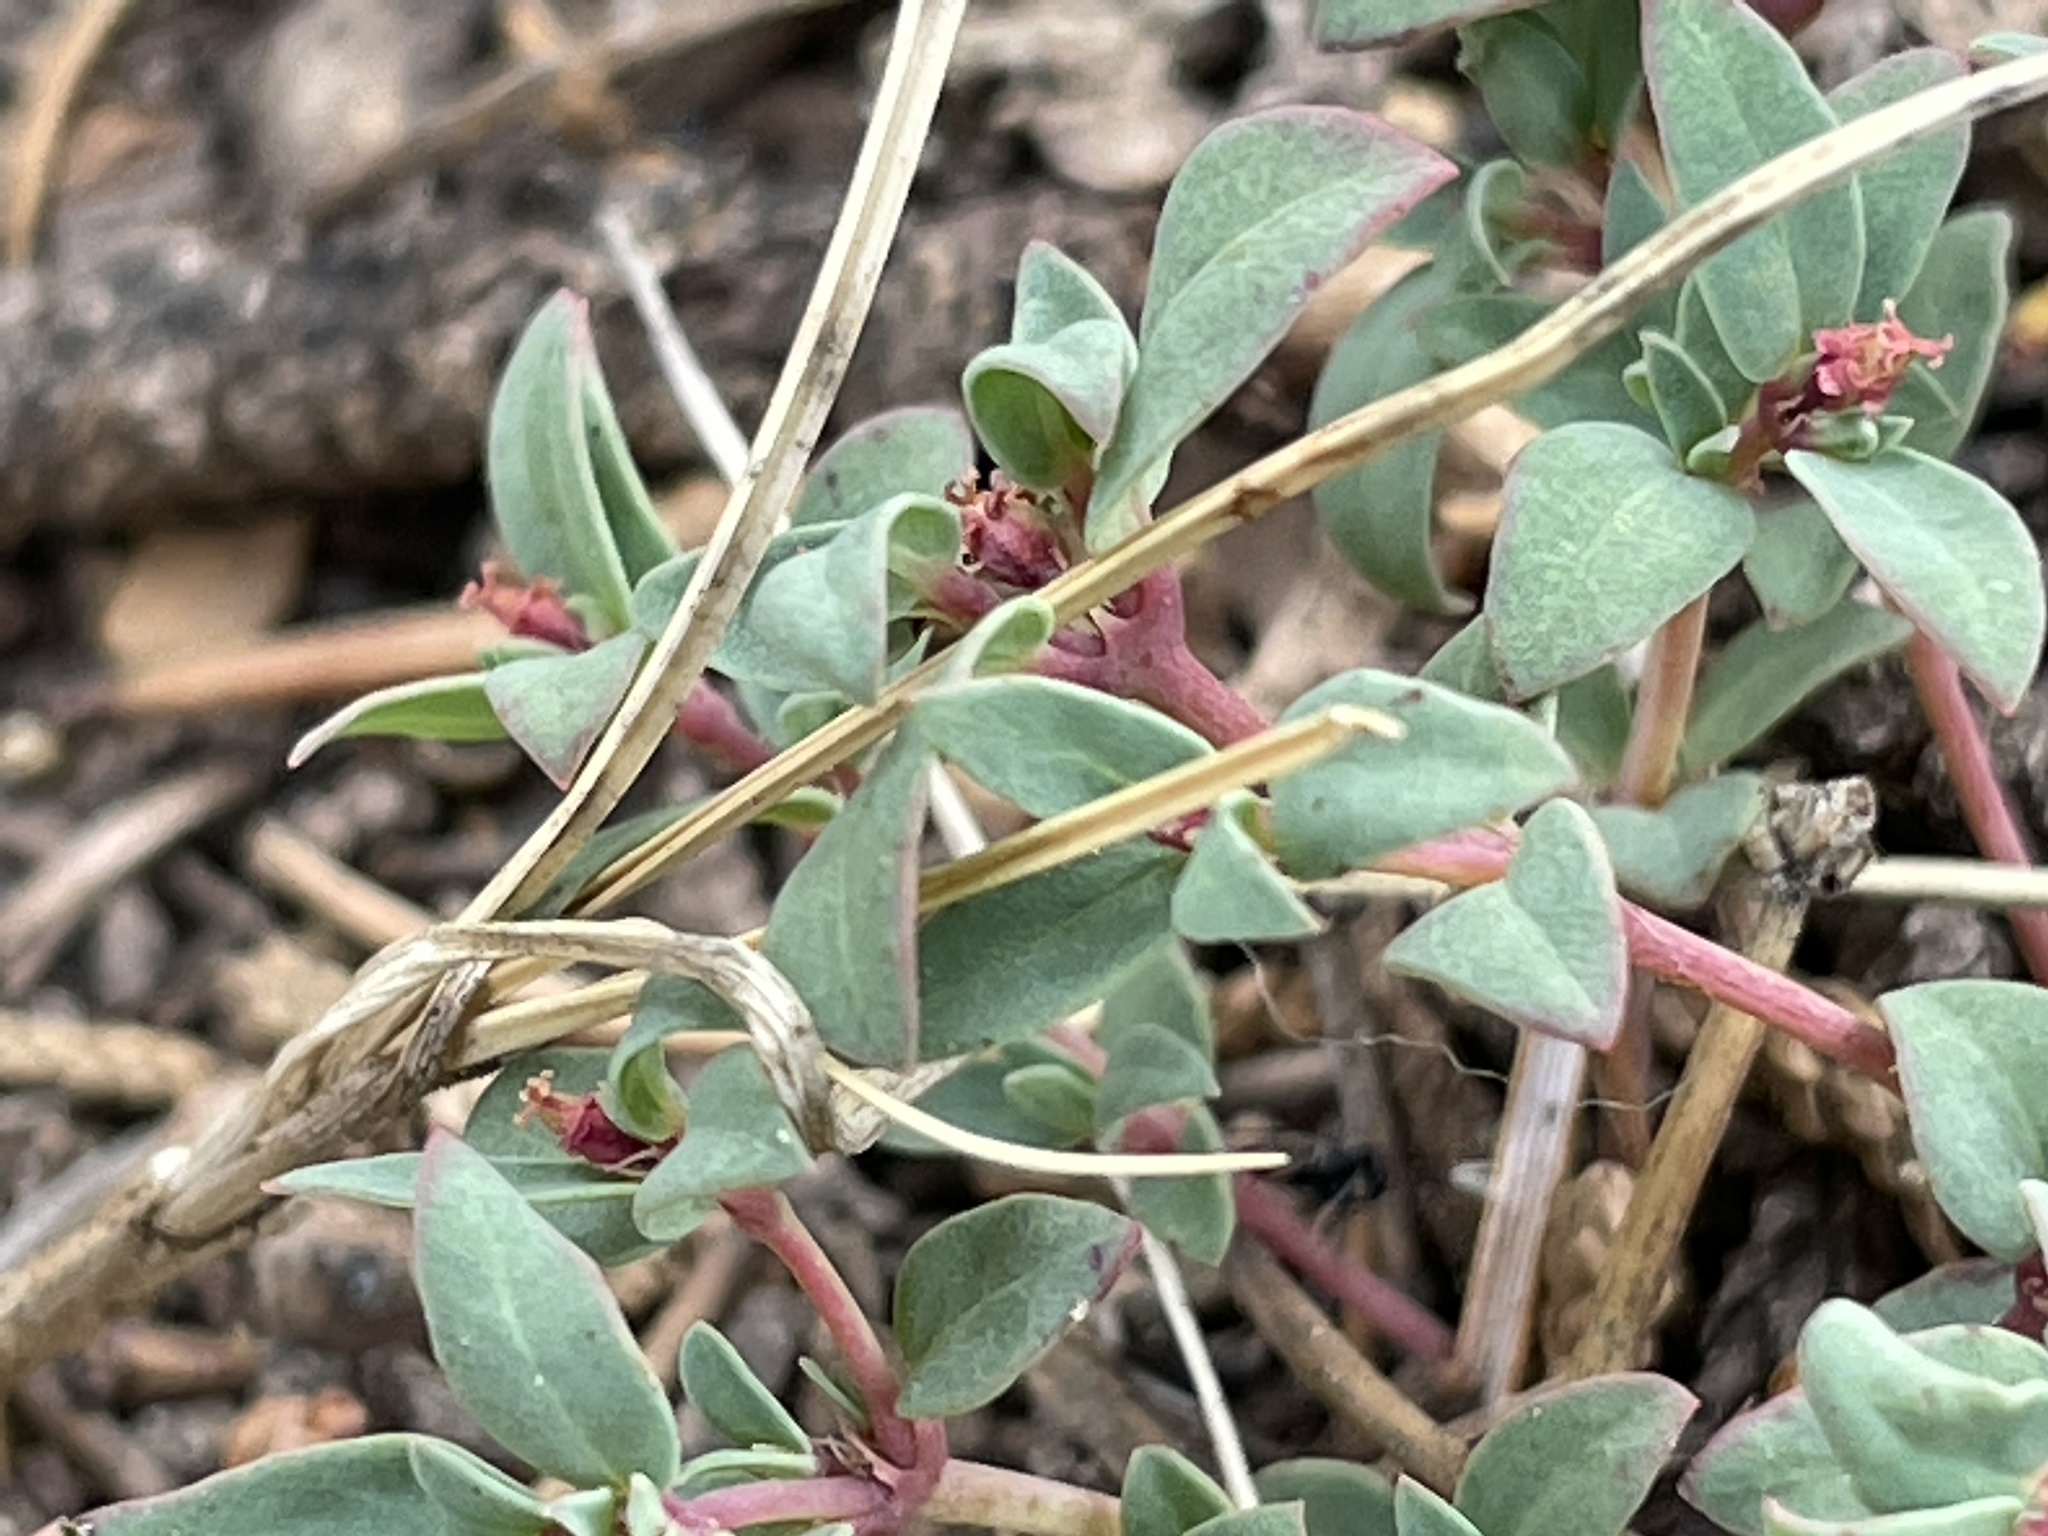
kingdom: Plantae
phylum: Tracheophyta
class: Magnoliopsida
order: Malpighiales
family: Euphorbiaceae
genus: Euphorbia
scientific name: Euphorbia fendleri
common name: Fendler's euphorbia
